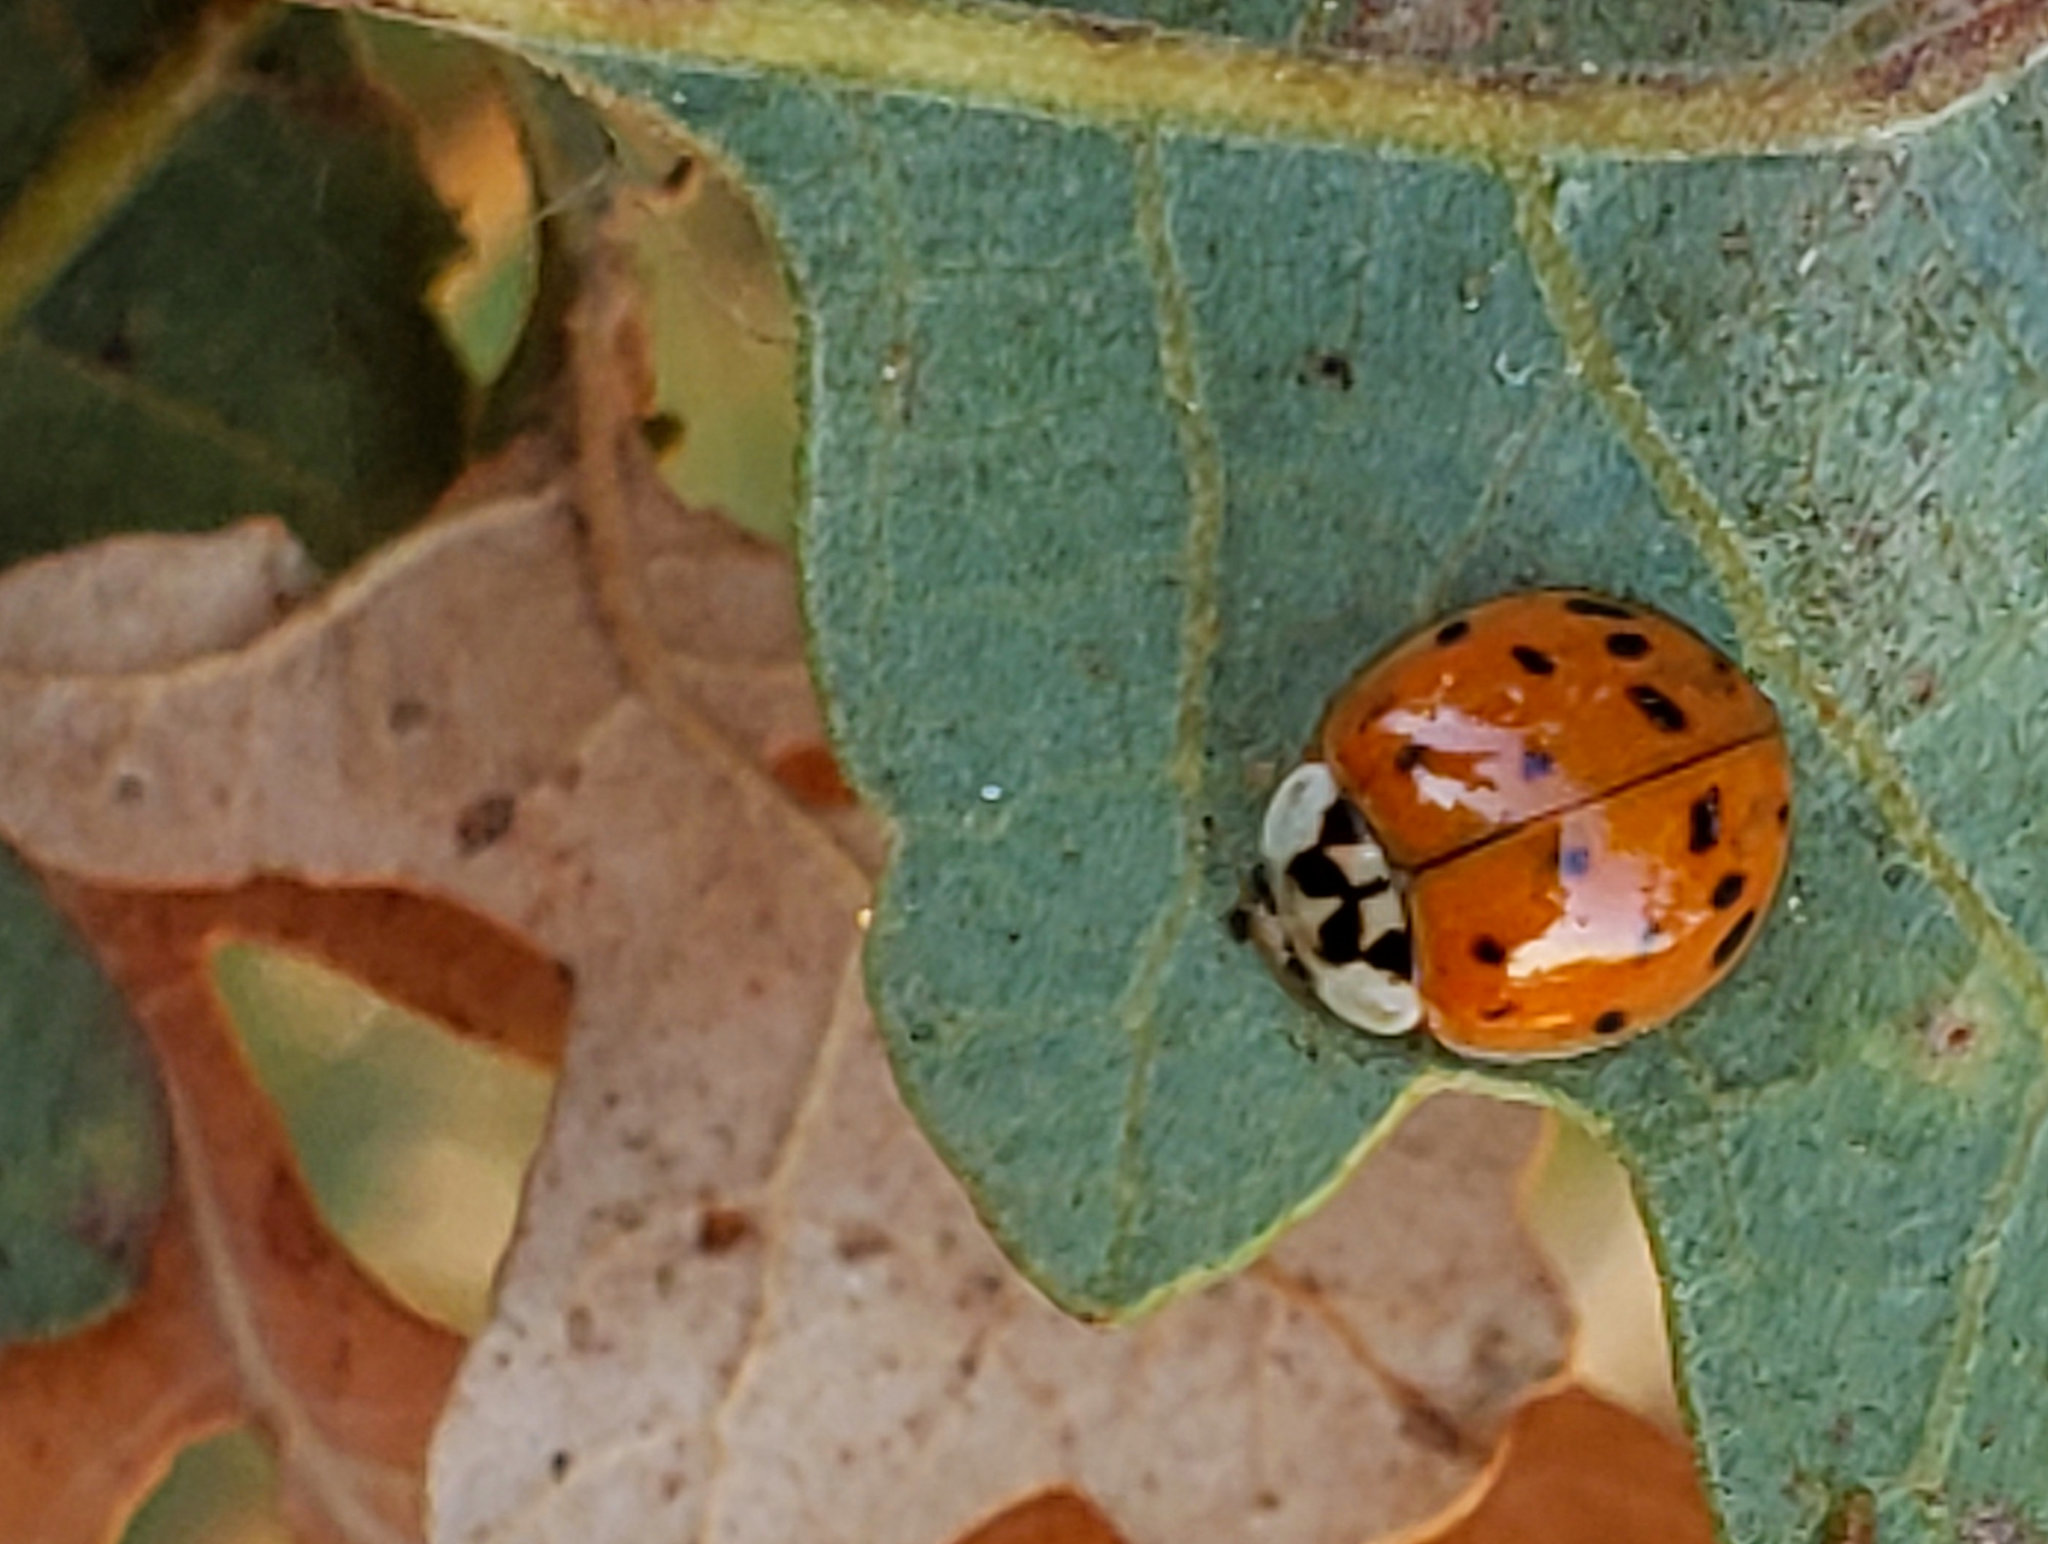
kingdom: Animalia
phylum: Arthropoda
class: Insecta
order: Coleoptera
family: Coccinellidae
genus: Harmonia
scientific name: Harmonia axyridis
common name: Harlequin ladybird
